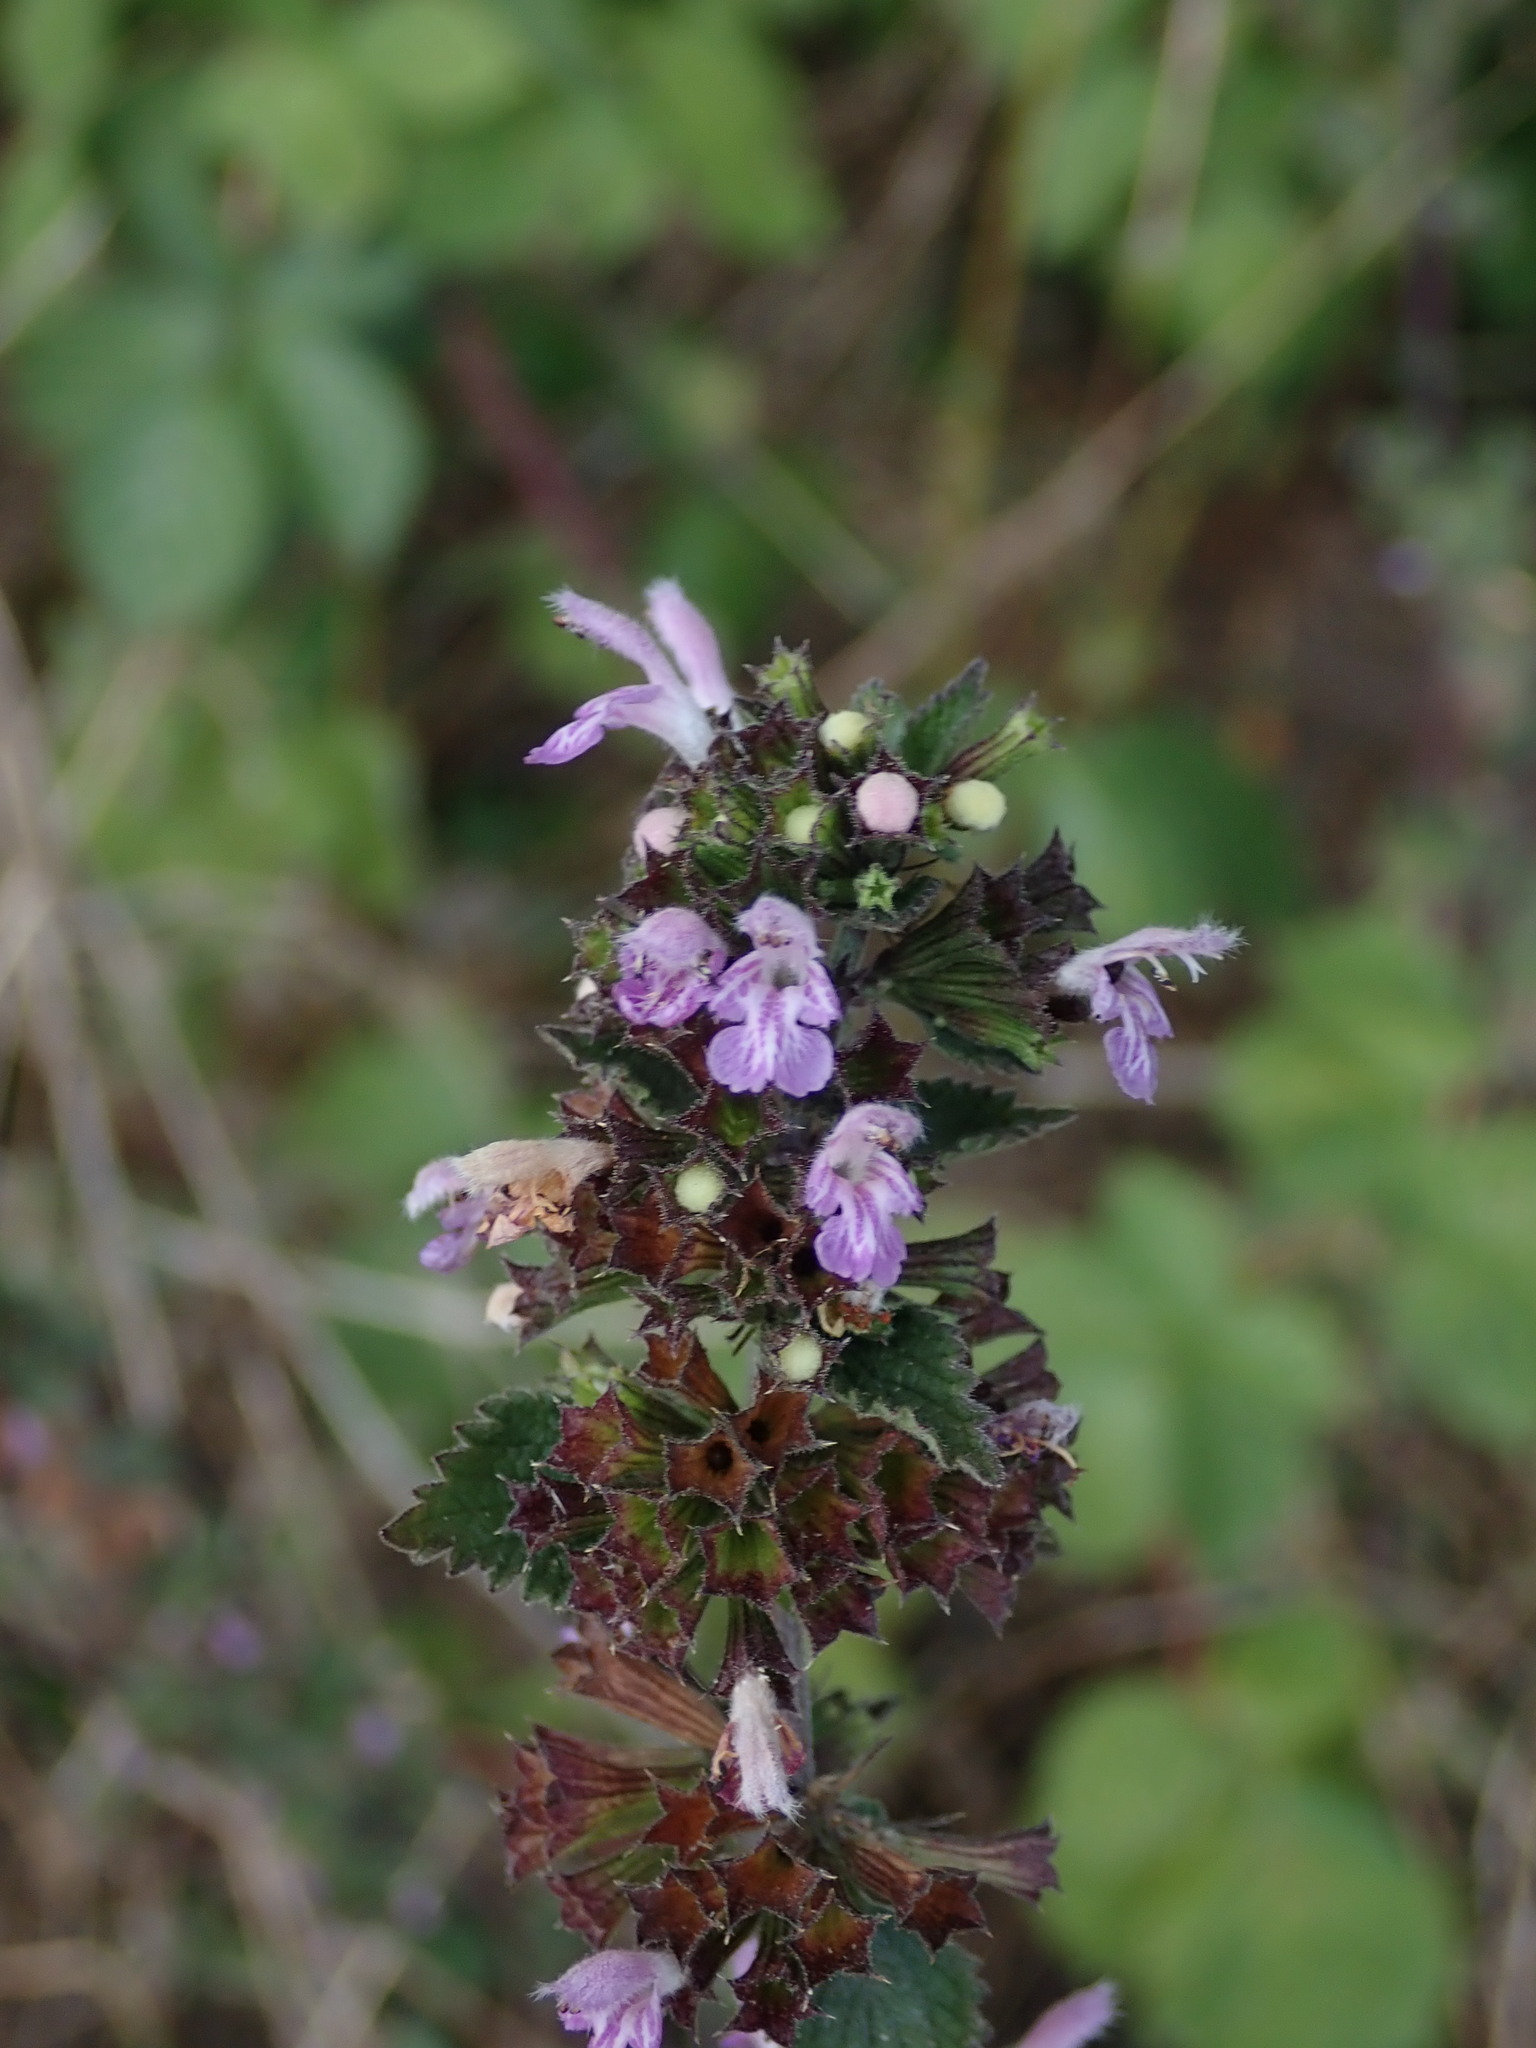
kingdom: Plantae
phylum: Tracheophyta
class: Magnoliopsida
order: Lamiales
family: Lamiaceae
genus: Ballota
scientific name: Ballota nigra
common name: Black horehound
